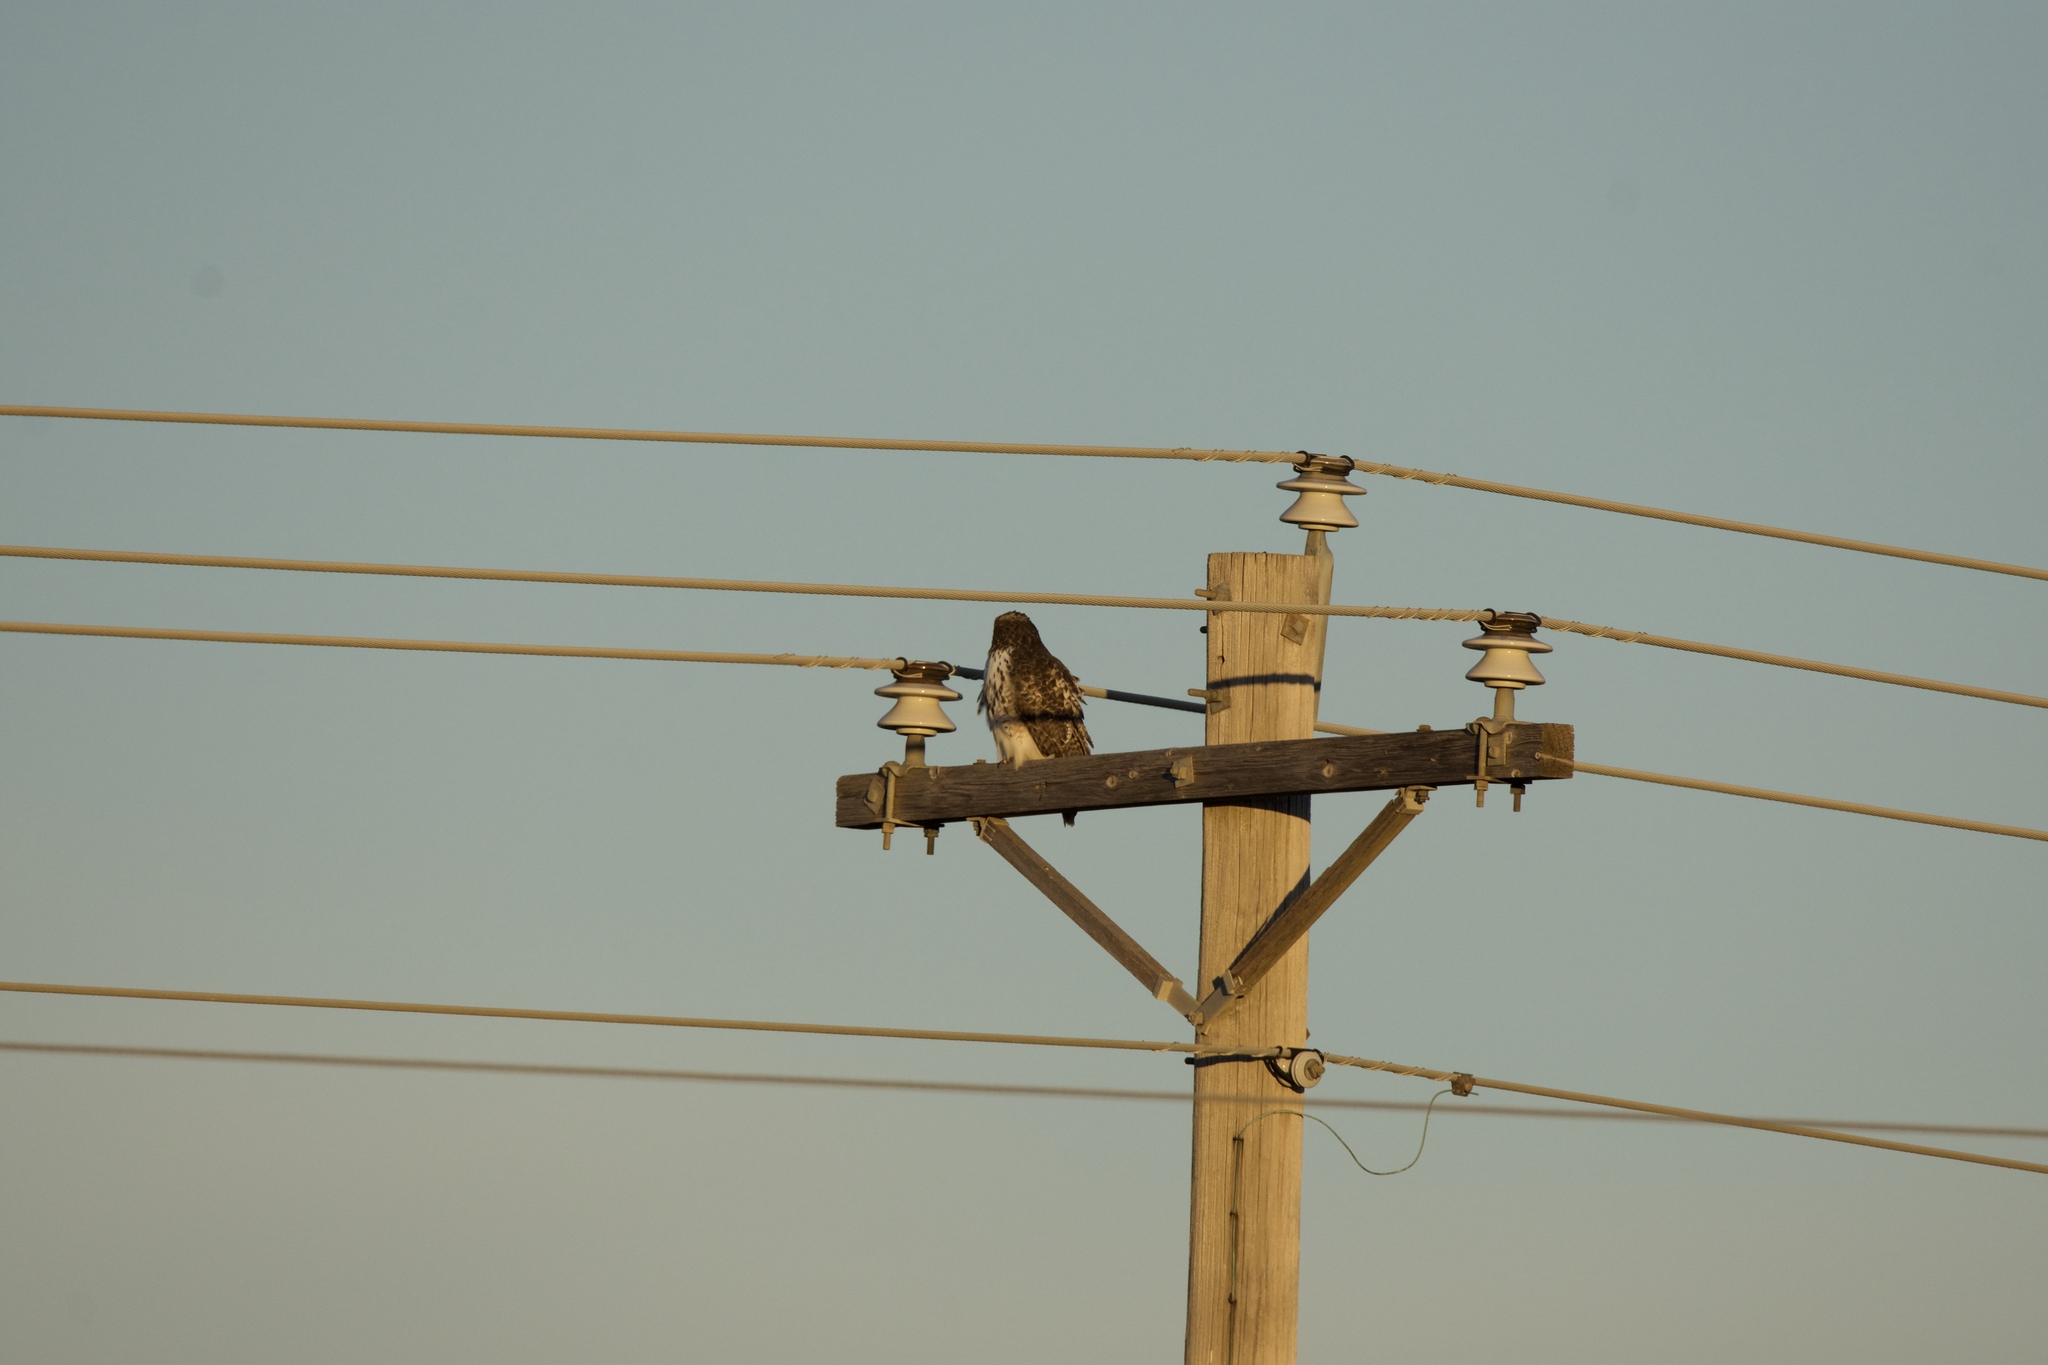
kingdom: Animalia
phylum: Chordata
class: Aves
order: Accipitriformes
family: Accipitridae
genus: Buteo
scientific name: Buteo jamaicensis
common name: Red-tailed hawk
